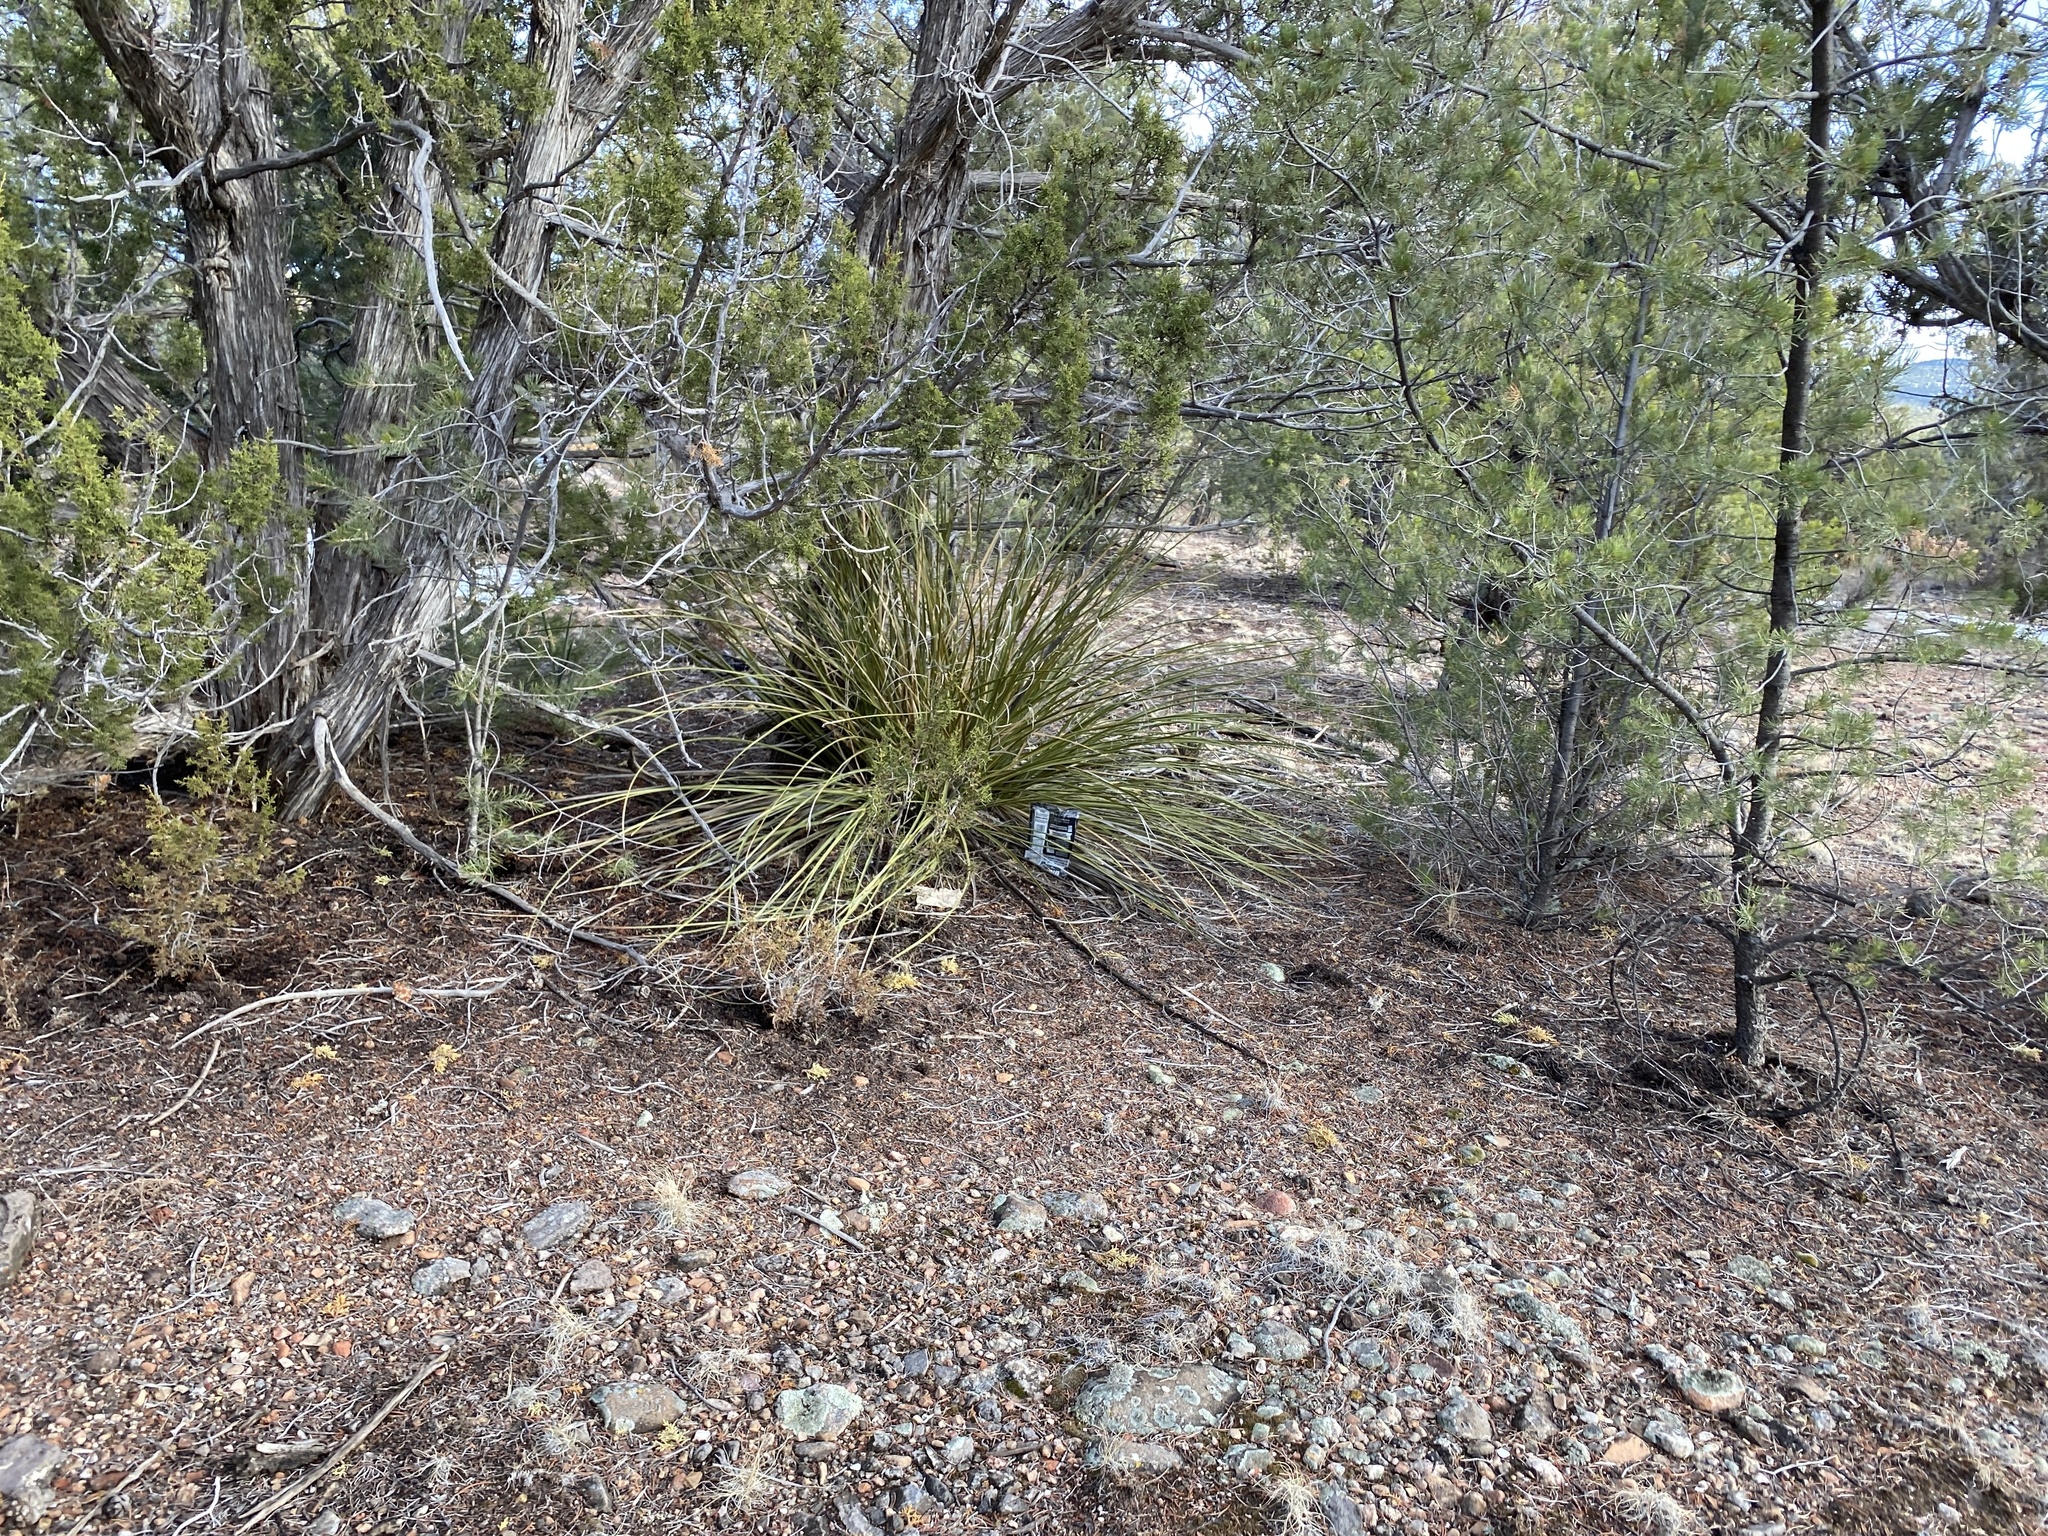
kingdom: Plantae
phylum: Tracheophyta
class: Liliopsida
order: Asparagales
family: Asparagaceae
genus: Nolina
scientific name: Nolina microcarpa
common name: Bear-grass
